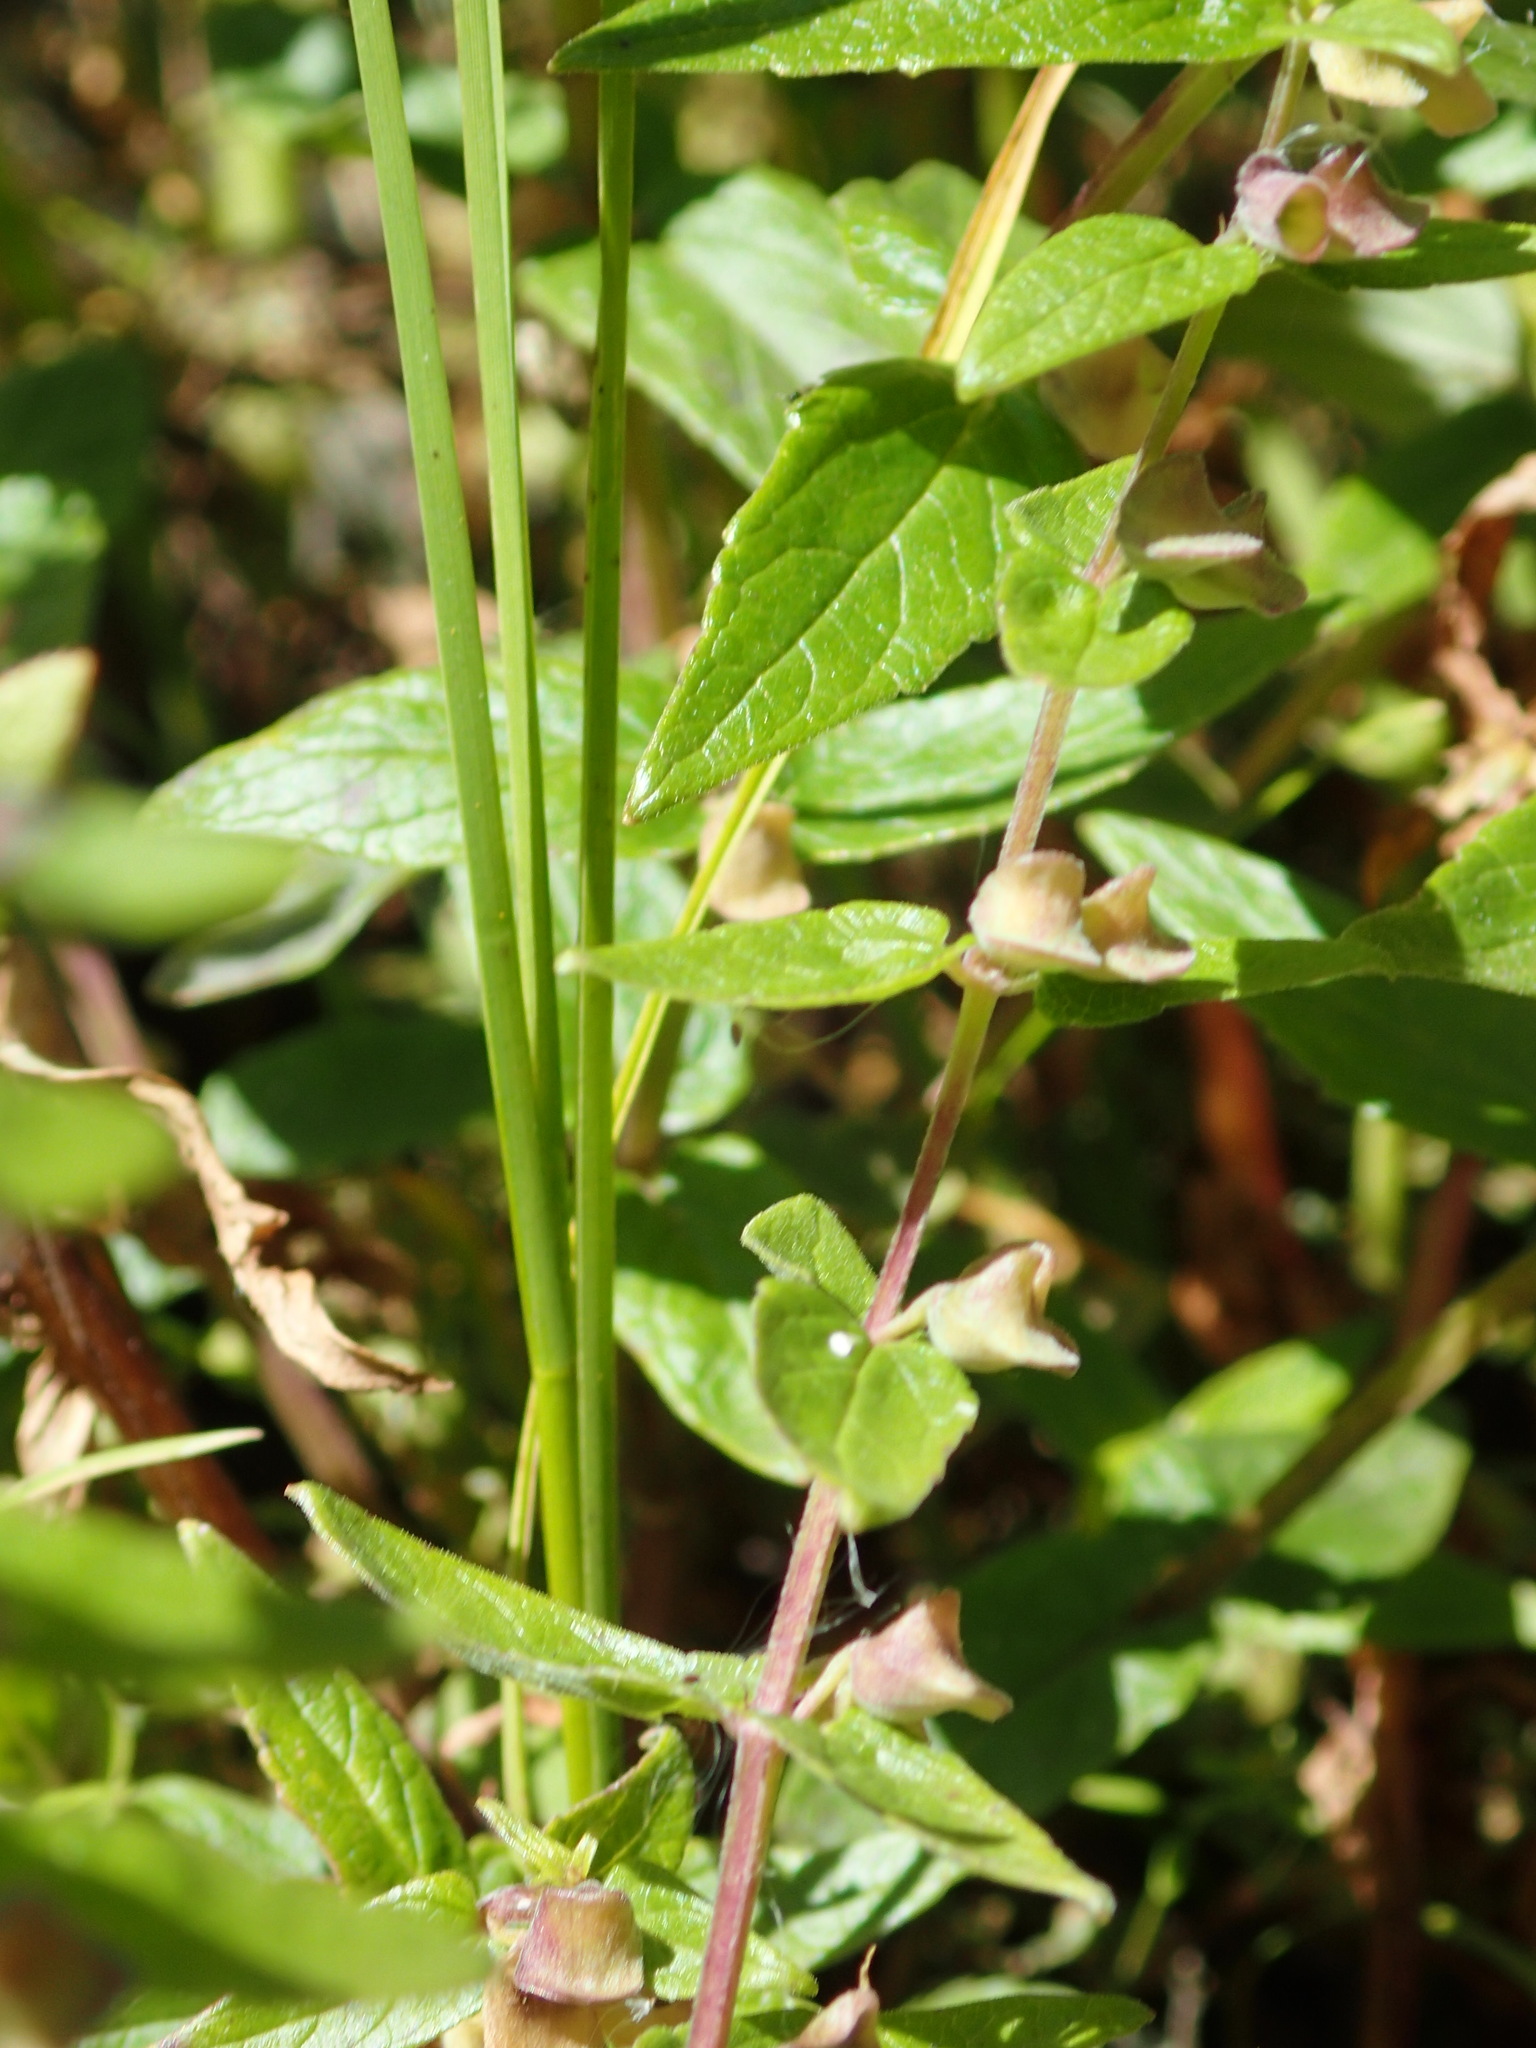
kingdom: Plantae
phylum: Tracheophyta
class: Magnoliopsida
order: Lamiales
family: Lamiaceae
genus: Scutellaria
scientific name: Scutellaria galericulata
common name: Skullcap
